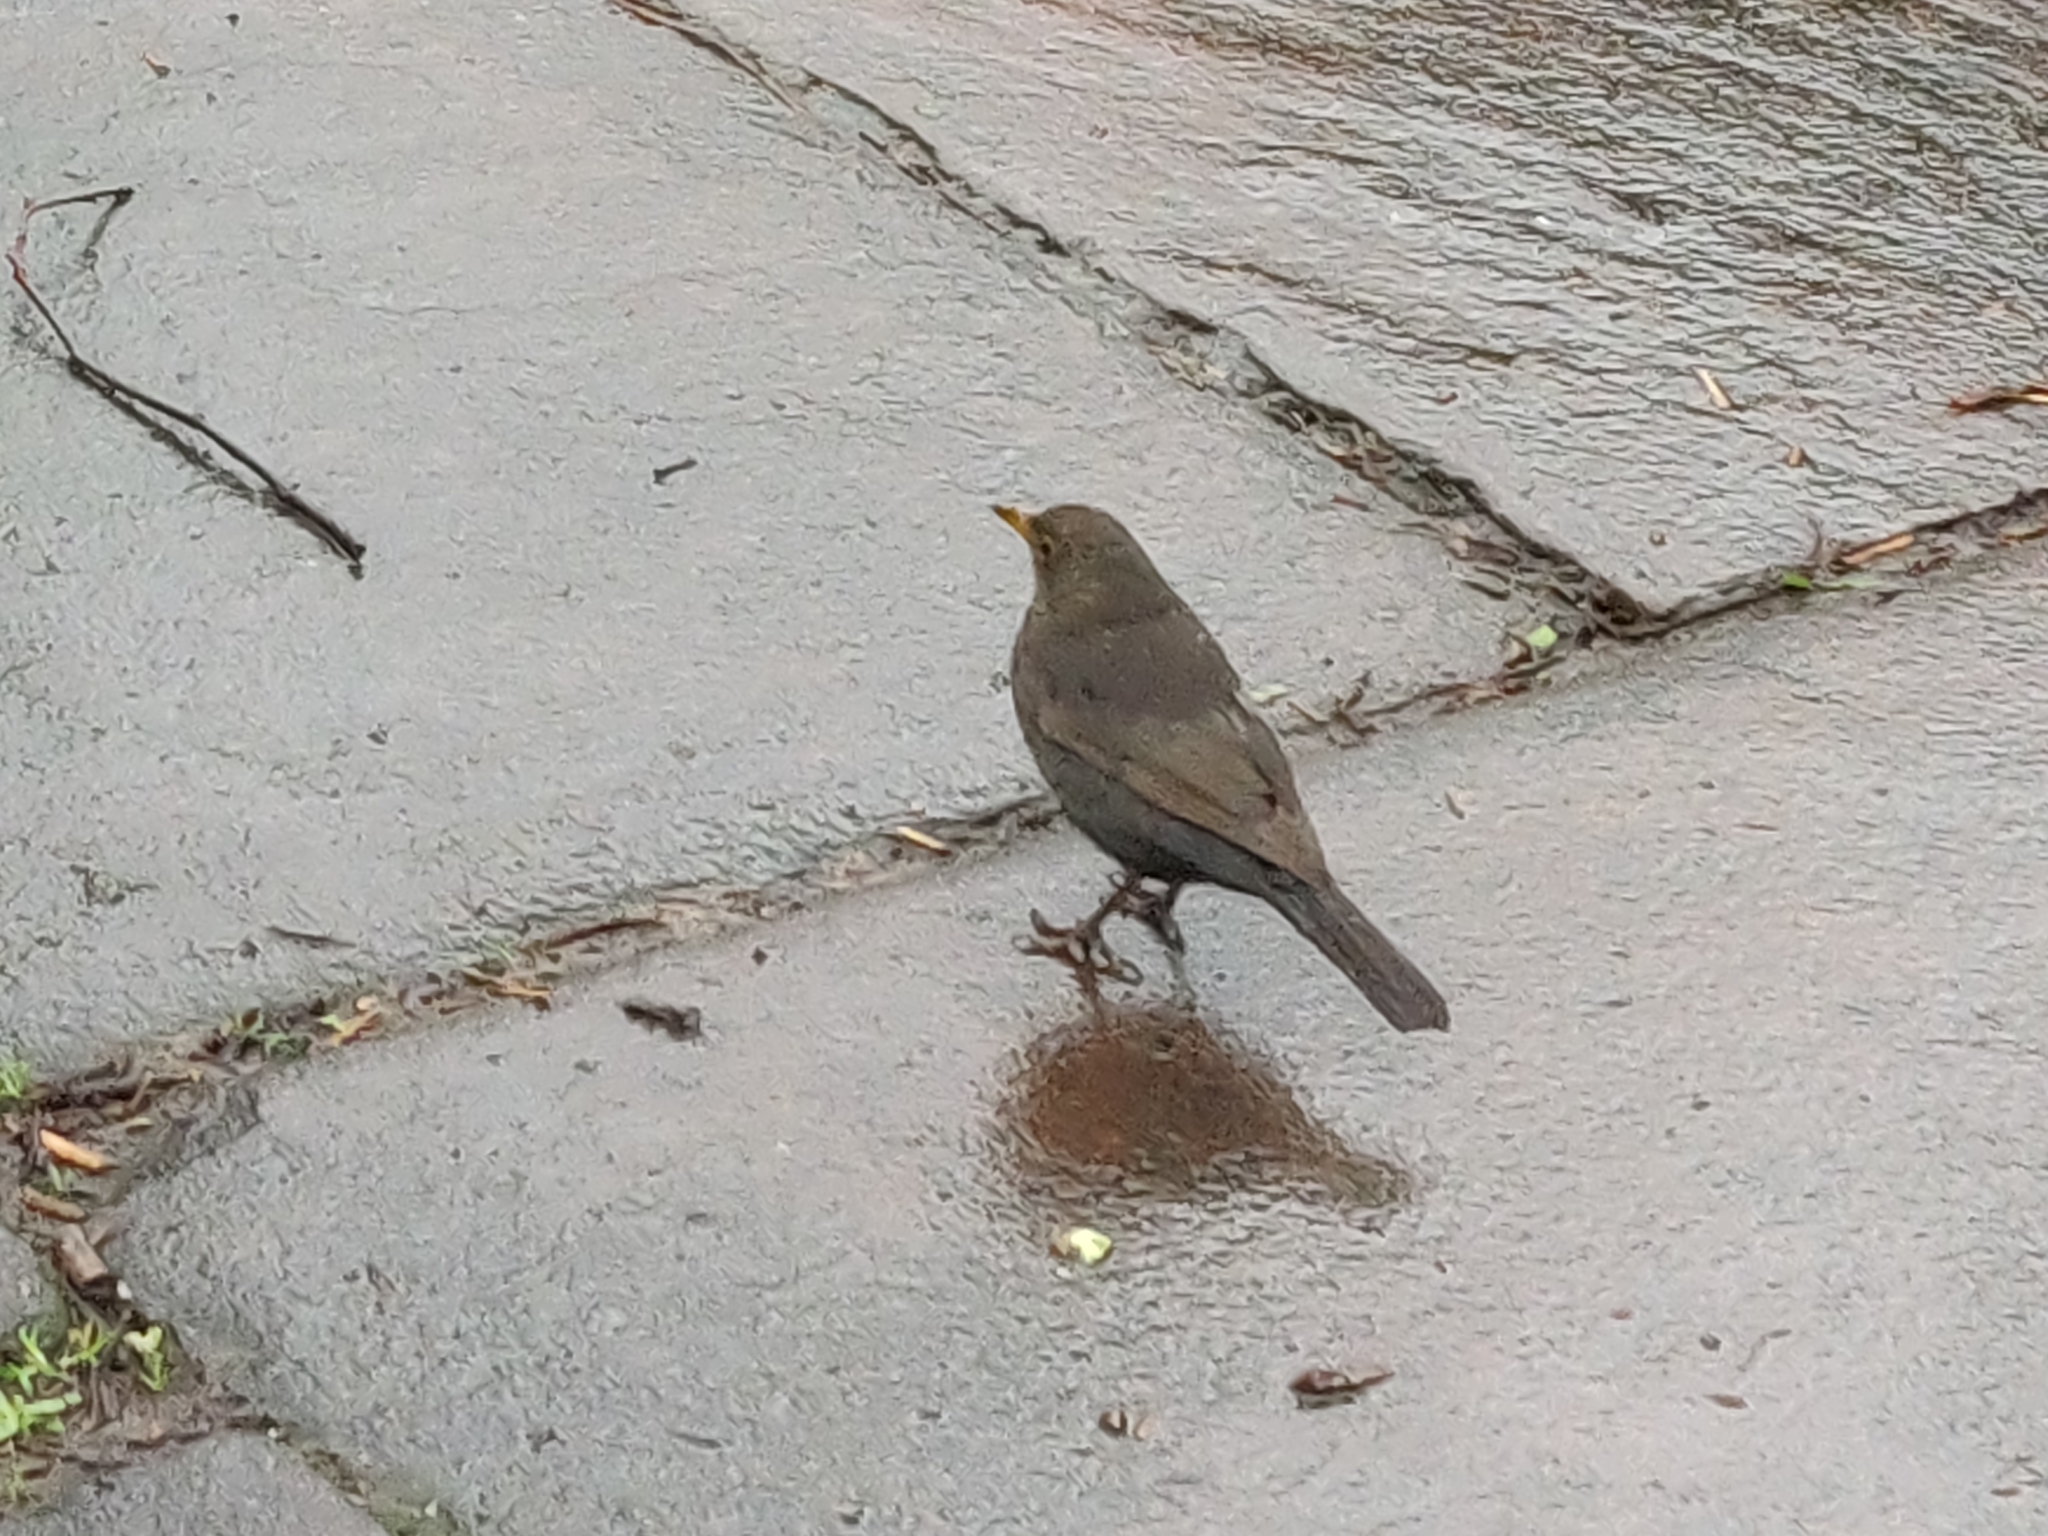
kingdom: Animalia
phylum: Chordata
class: Aves
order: Passeriformes
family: Turdidae
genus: Turdus
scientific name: Turdus merula
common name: Common blackbird
